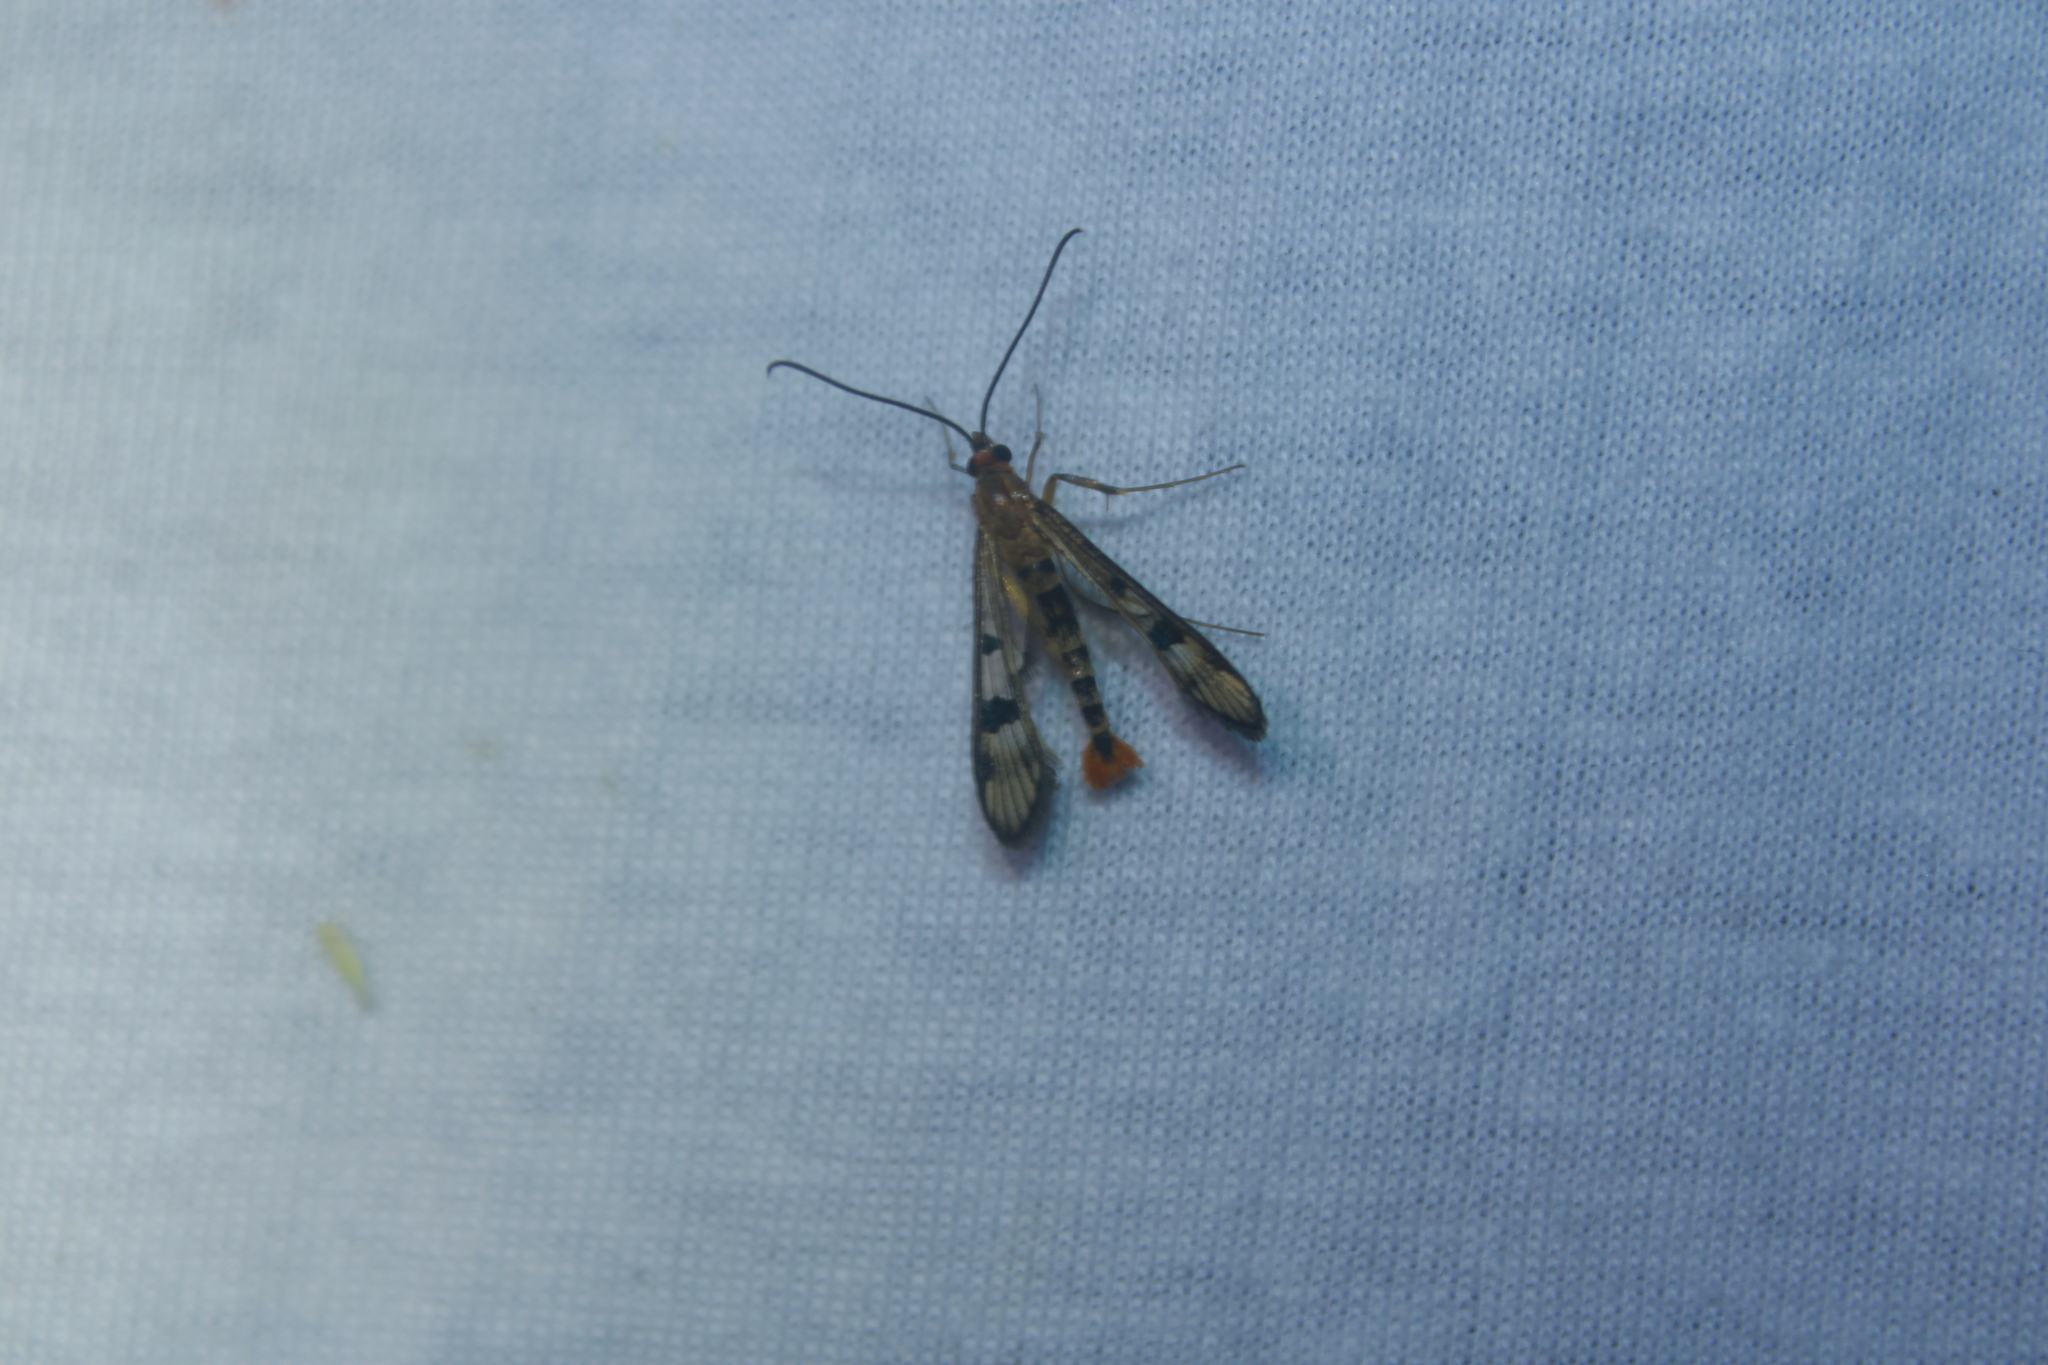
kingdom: Animalia
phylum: Arthropoda
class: Insecta
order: Lepidoptera
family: Sesiidae
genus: Synanthedon
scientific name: Synanthedon acerni
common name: Maple callus borer moth
